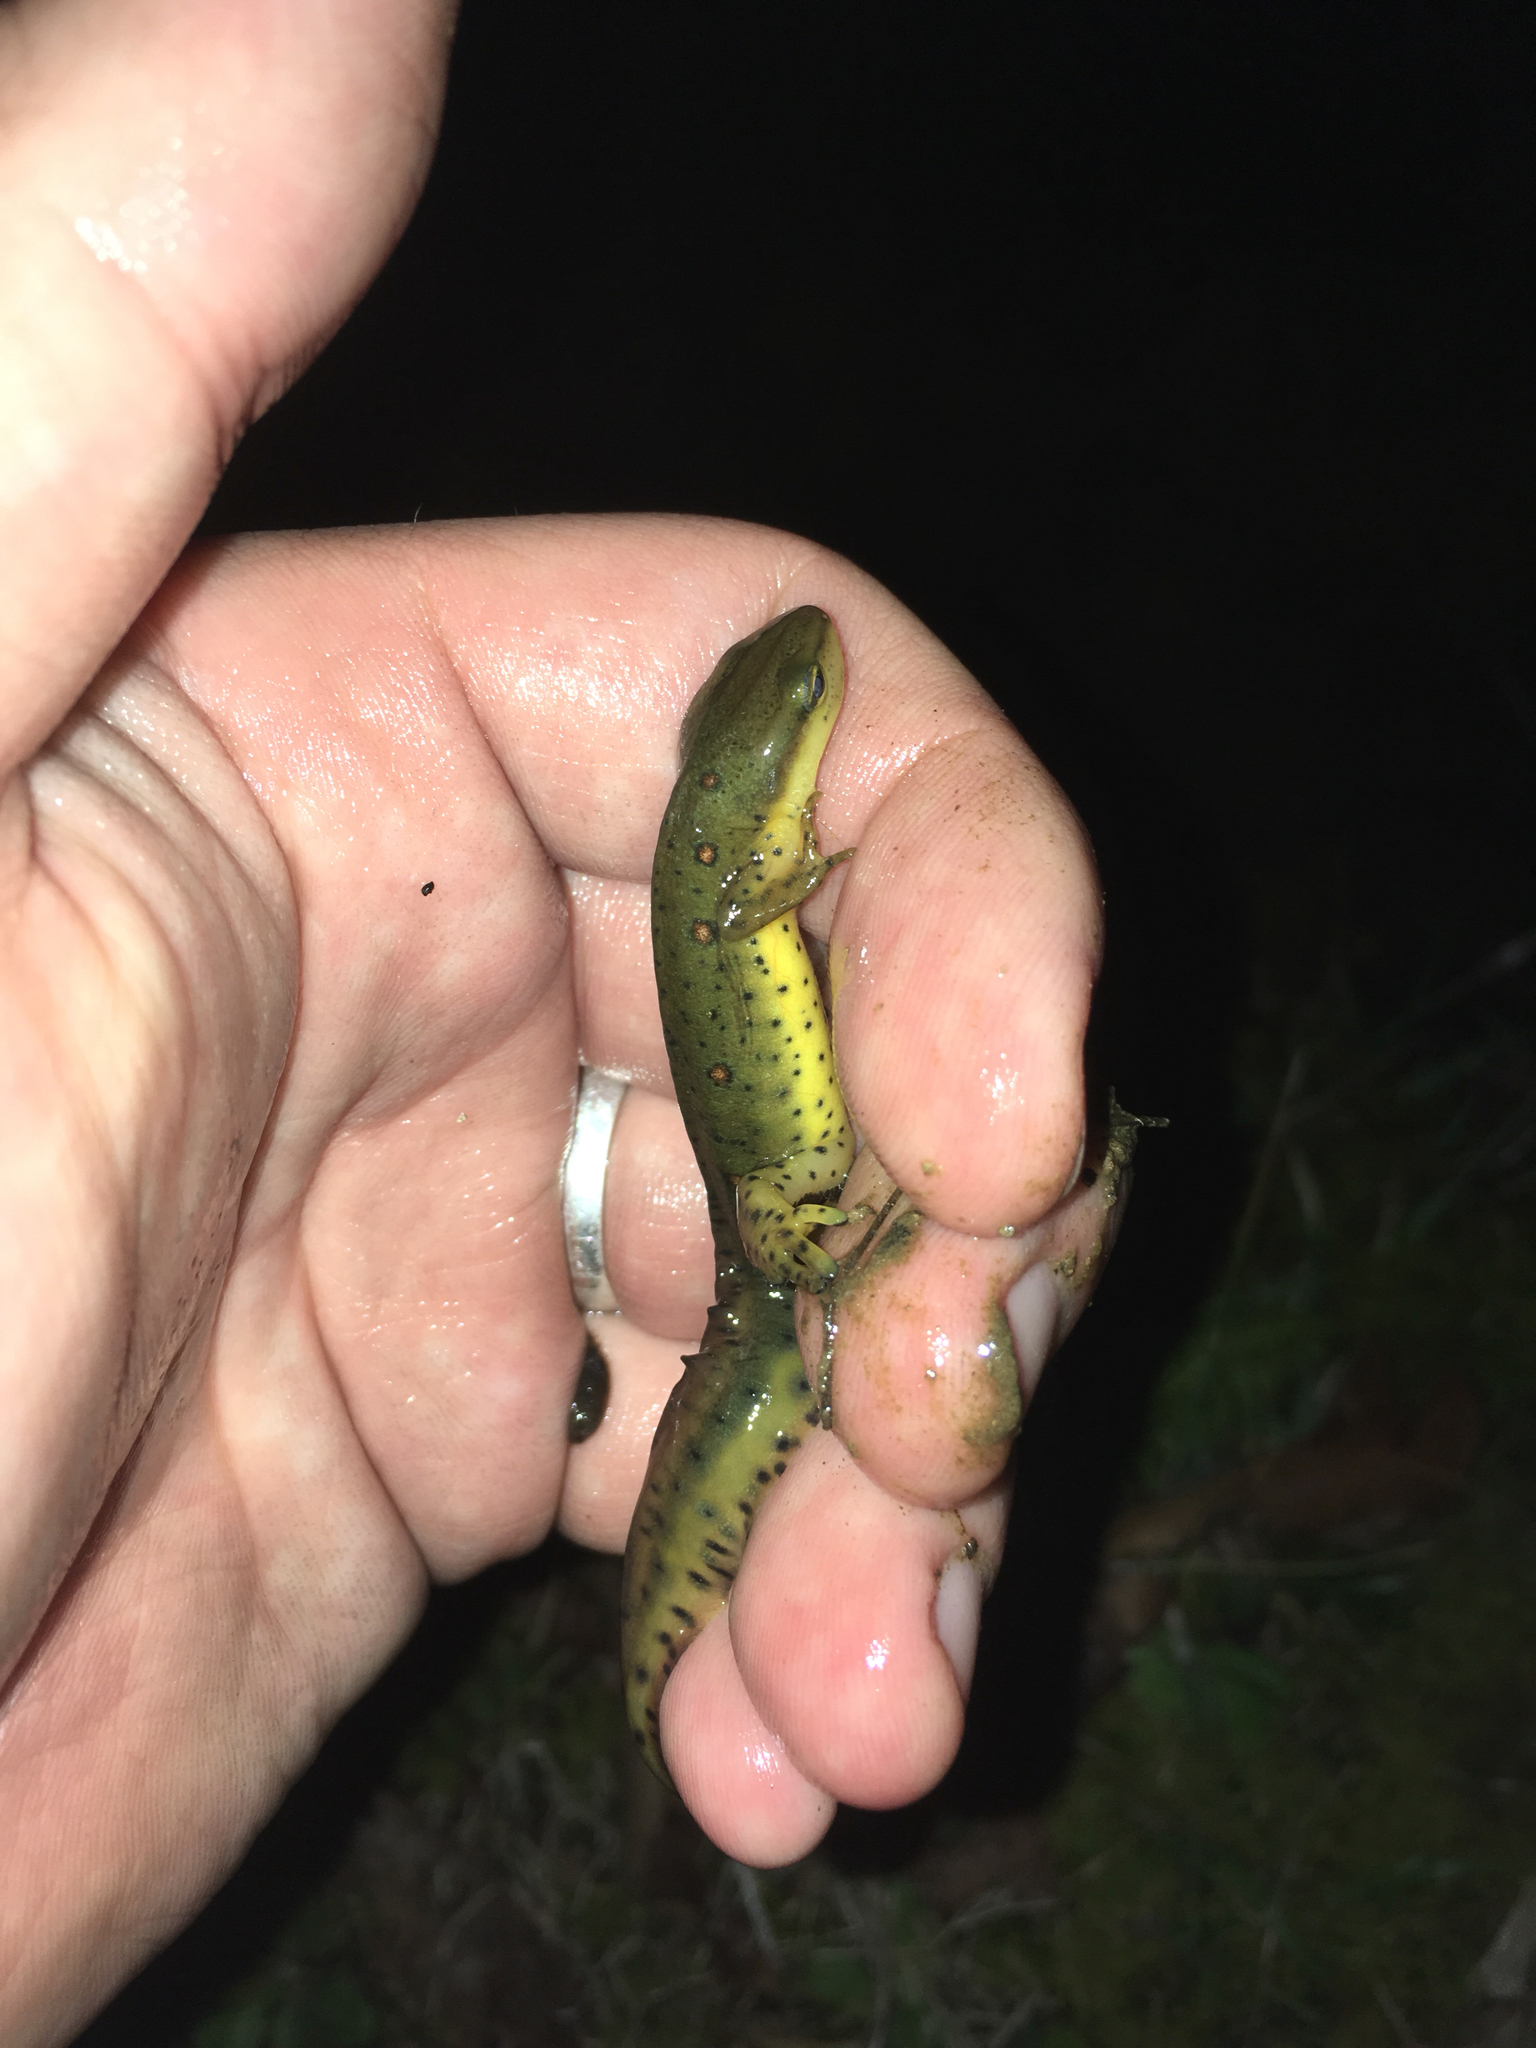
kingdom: Animalia
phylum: Chordata
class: Amphibia
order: Caudata
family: Salamandridae
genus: Notophthalmus
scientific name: Notophthalmus viridescens
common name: Eastern newt
